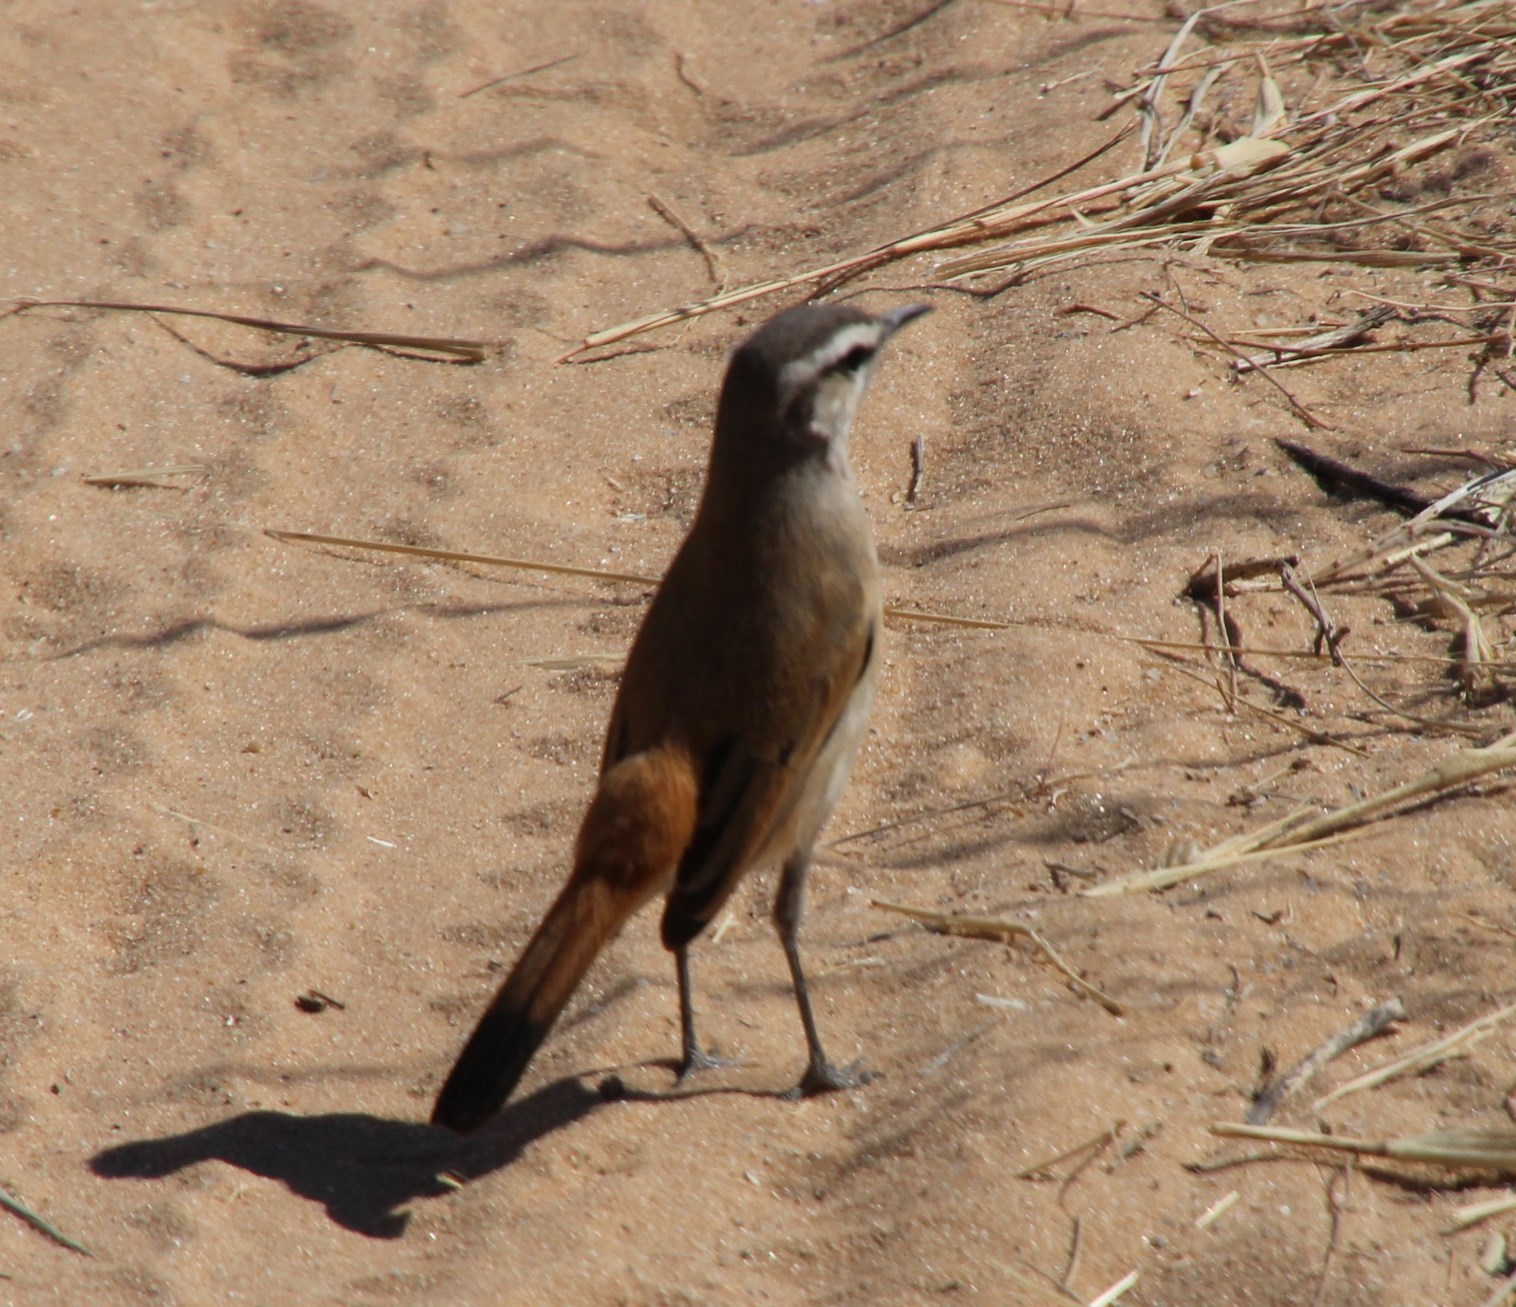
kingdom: Animalia
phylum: Chordata
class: Aves
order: Passeriformes
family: Muscicapidae
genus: Erythropygia
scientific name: Erythropygia paena
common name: Kalahari scrub robin
